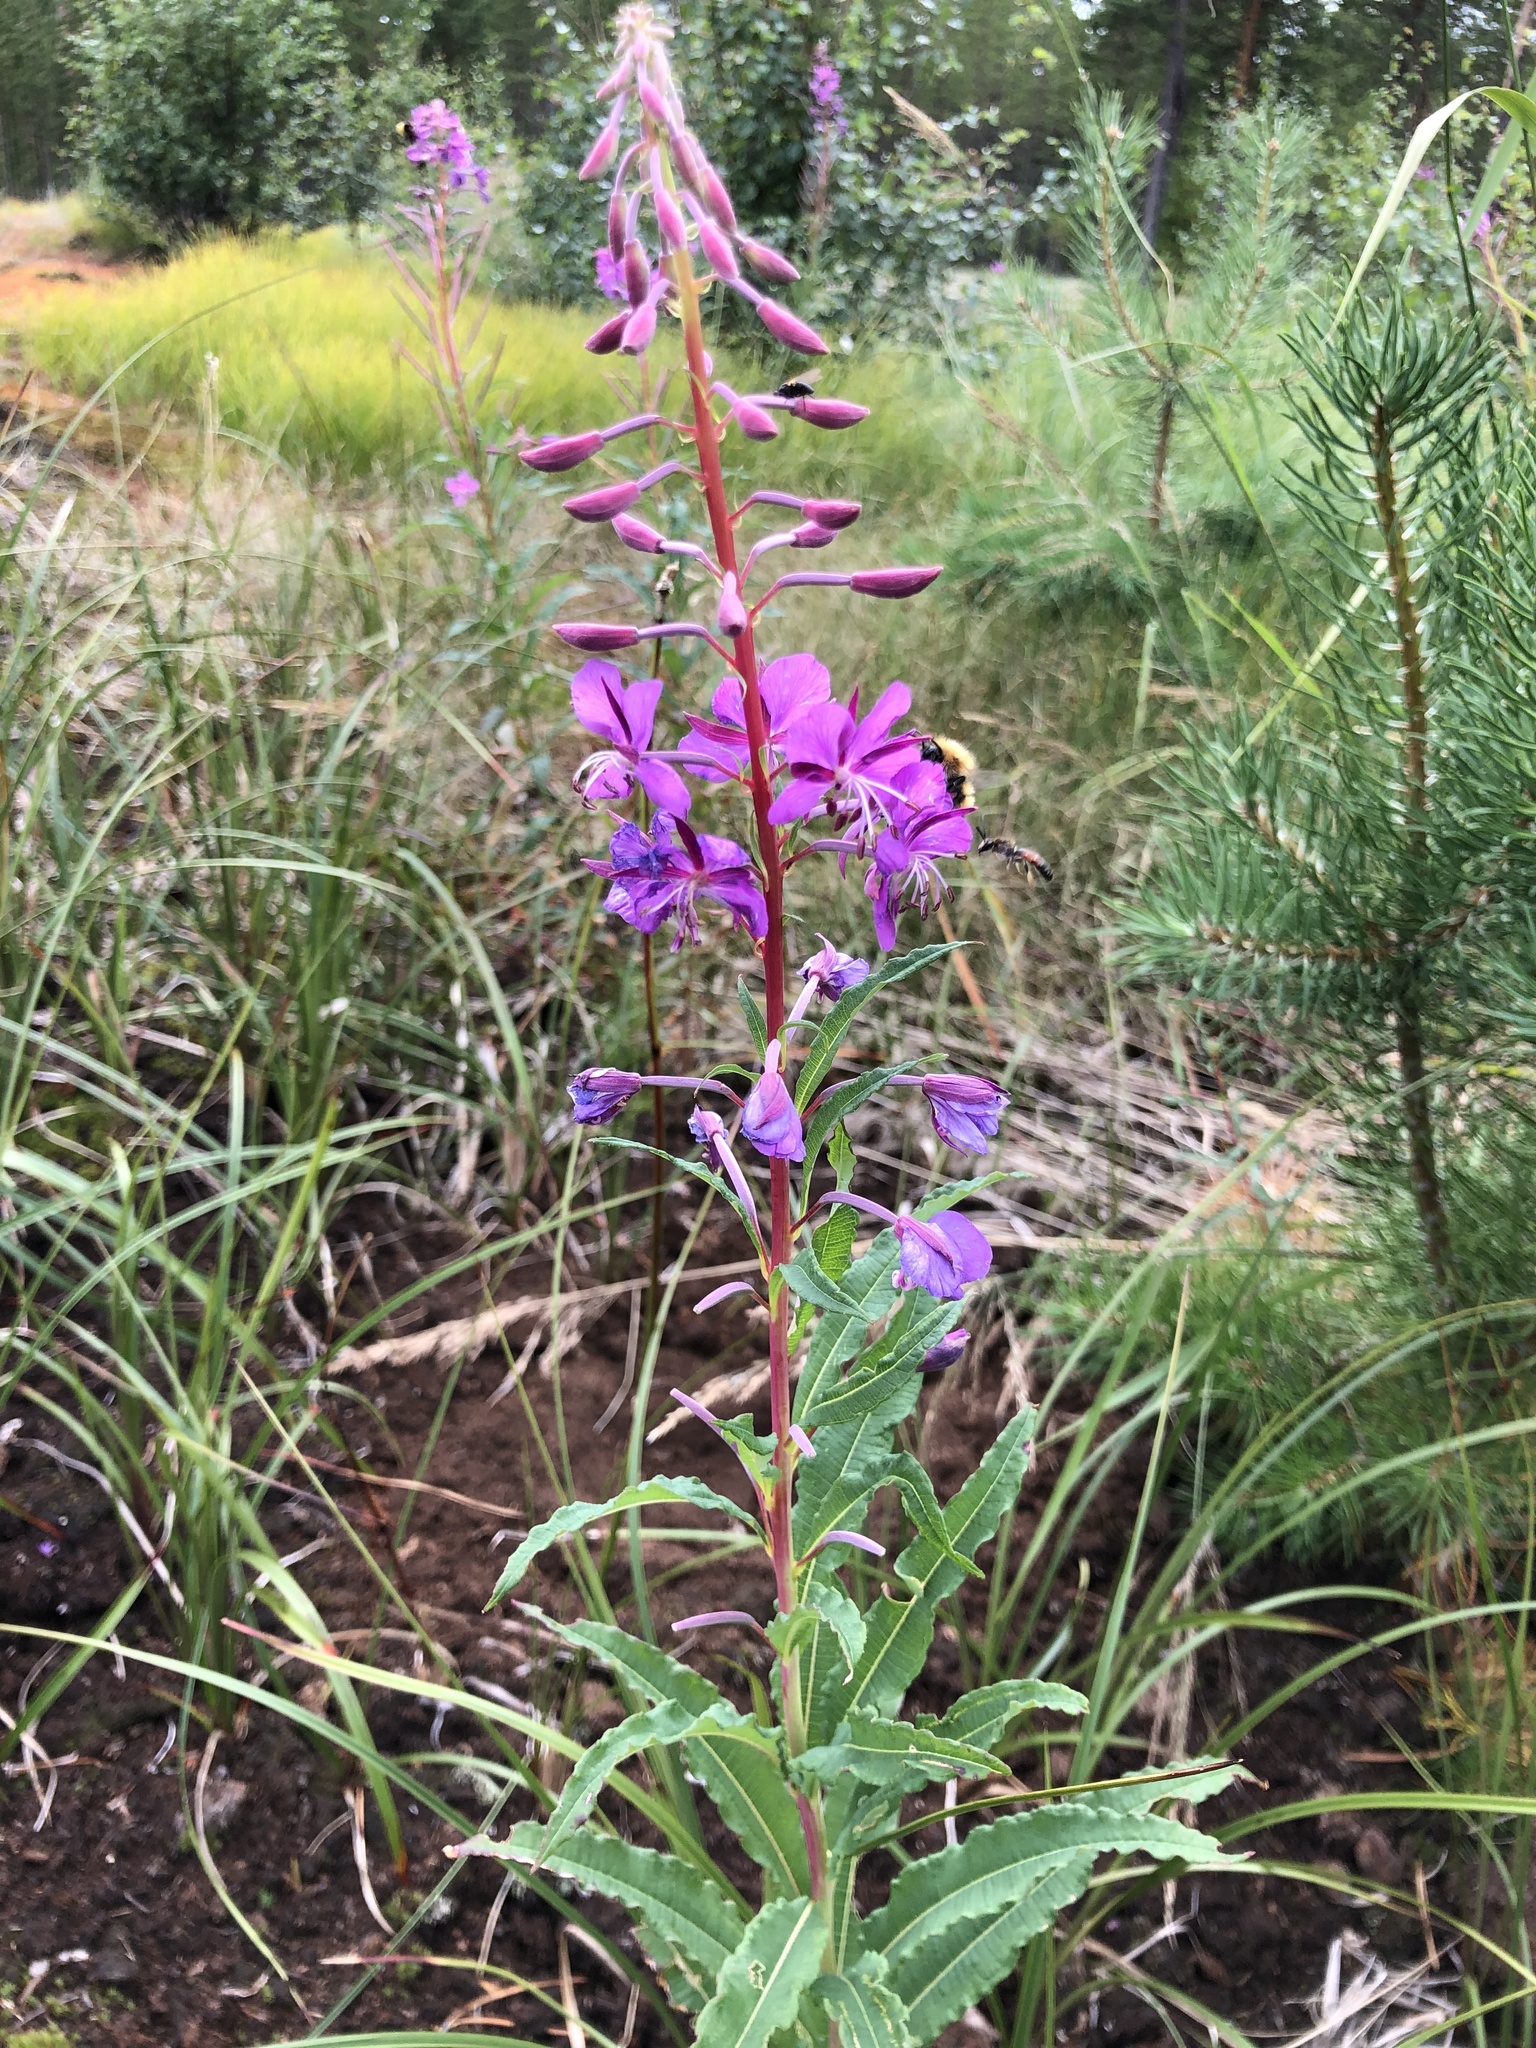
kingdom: Plantae
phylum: Tracheophyta
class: Magnoliopsida
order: Myrtales
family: Onagraceae
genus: Chamaenerion
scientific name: Chamaenerion angustifolium
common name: Fireweed
